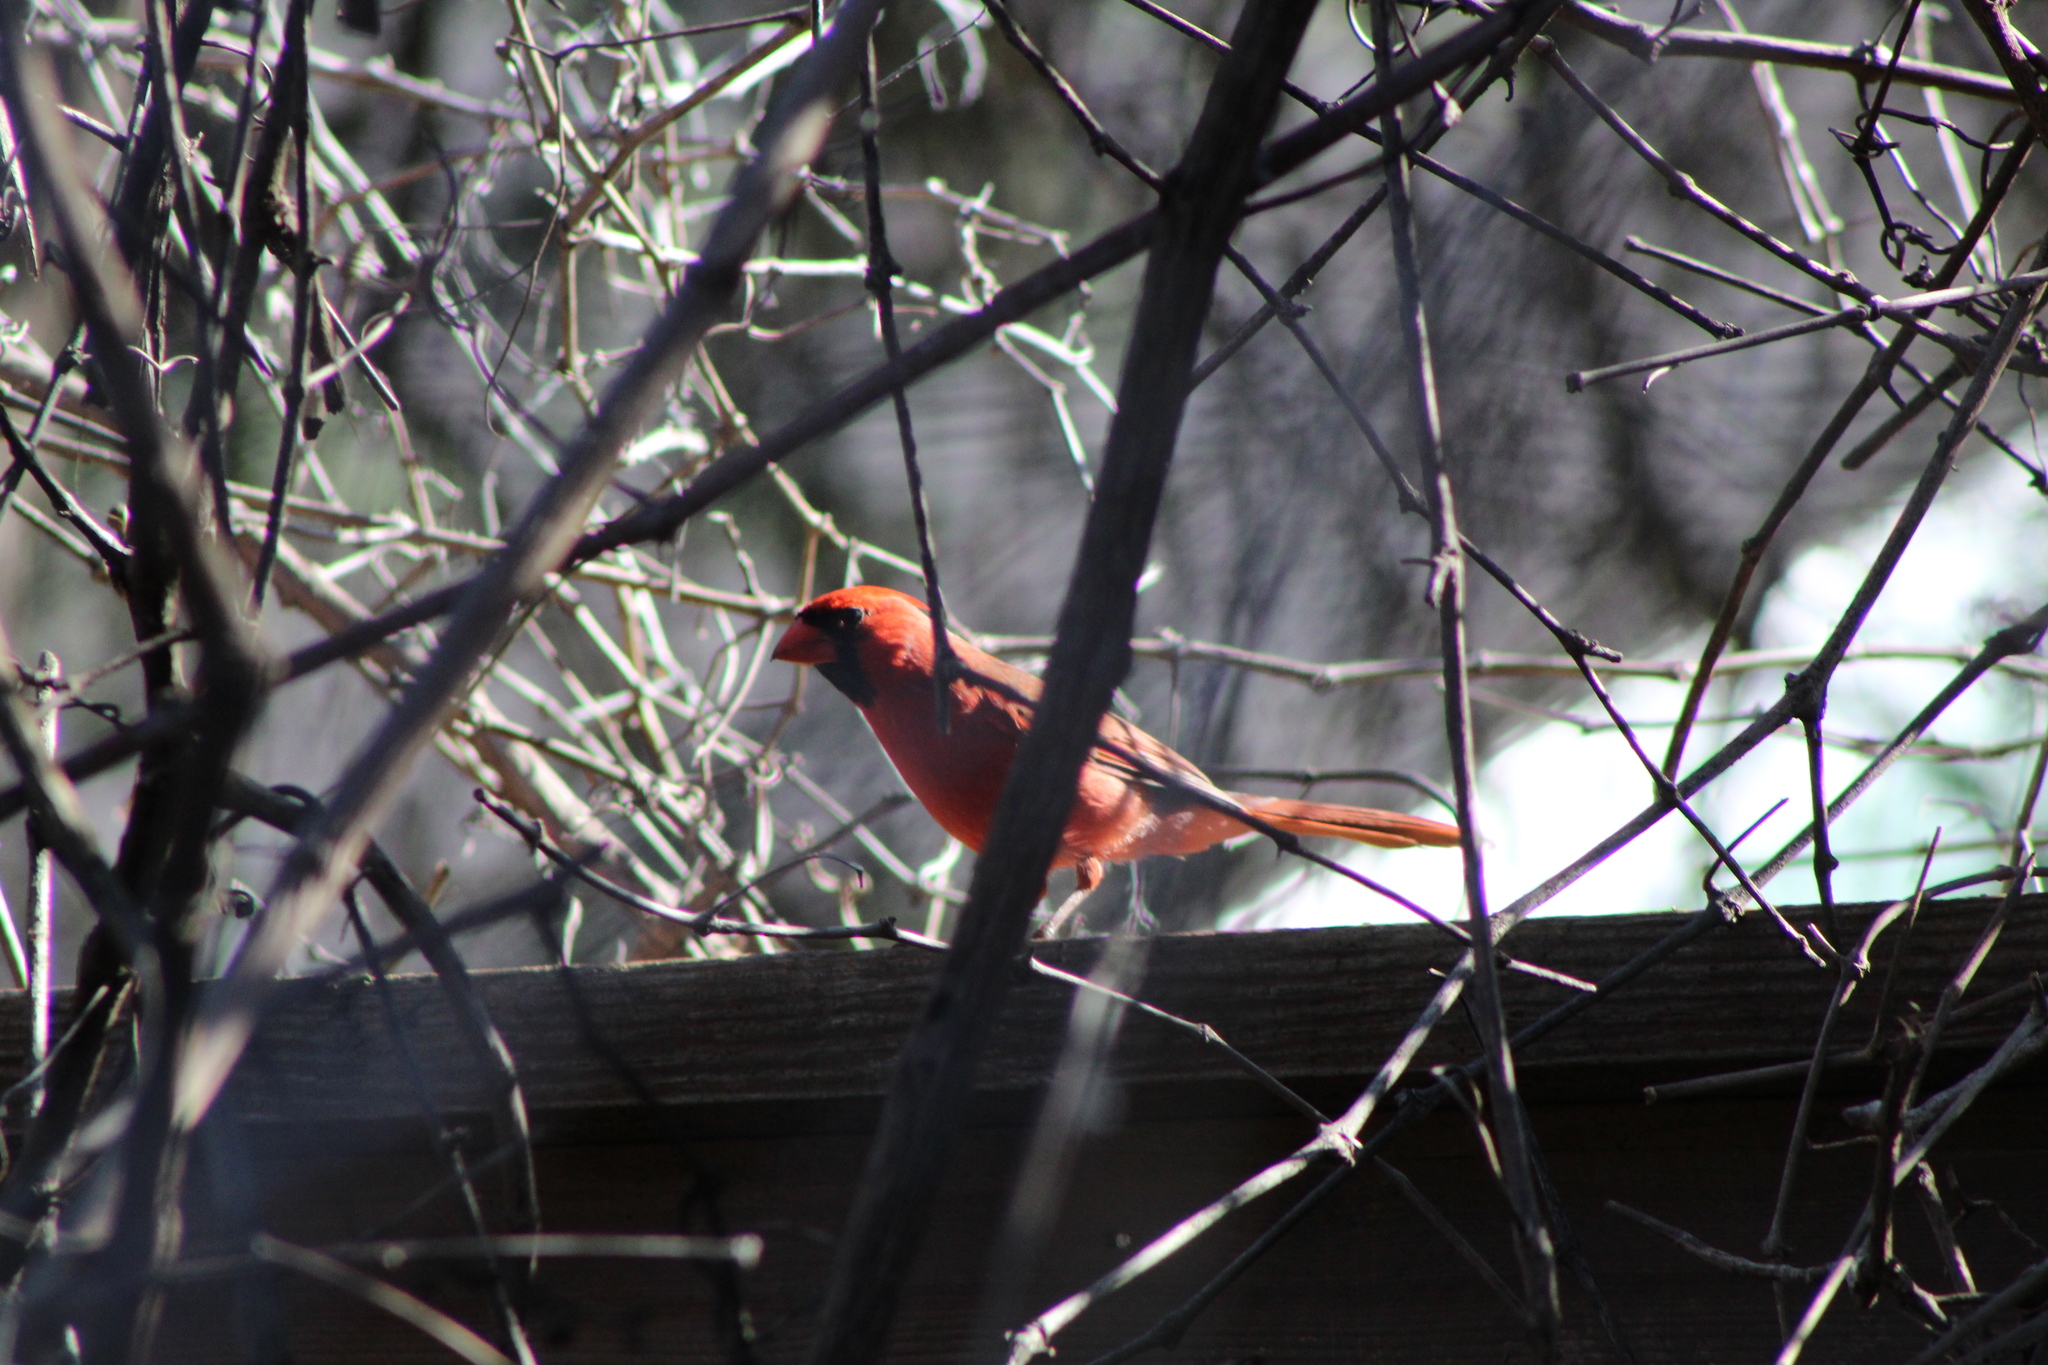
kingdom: Animalia
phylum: Chordata
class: Aves
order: Passeriformes
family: Cardinalidae
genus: Cardinalis
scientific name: Cardinalis cardinalis
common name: Northern cardinal
